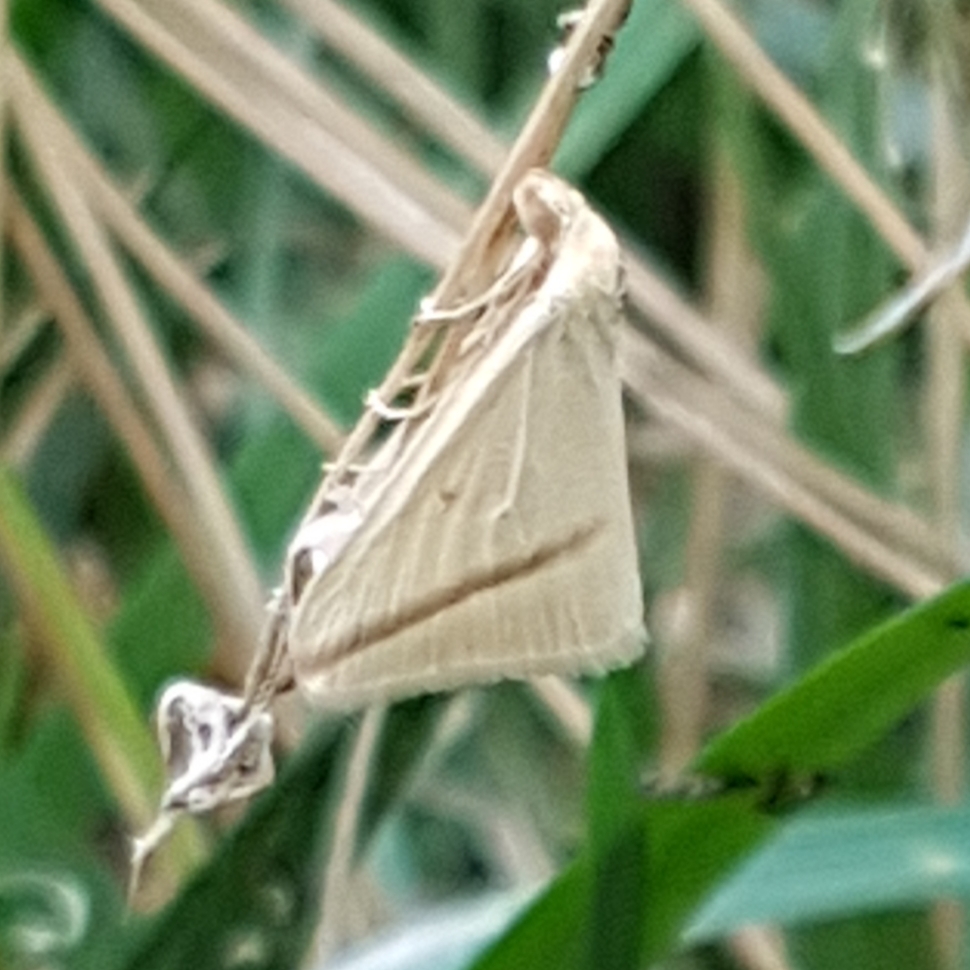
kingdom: Animalia
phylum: Arthropoda
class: Insecta
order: Lepidoptera
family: Geometridae
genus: Rhodometra
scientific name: Rhodometra sacraria
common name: Vestal
